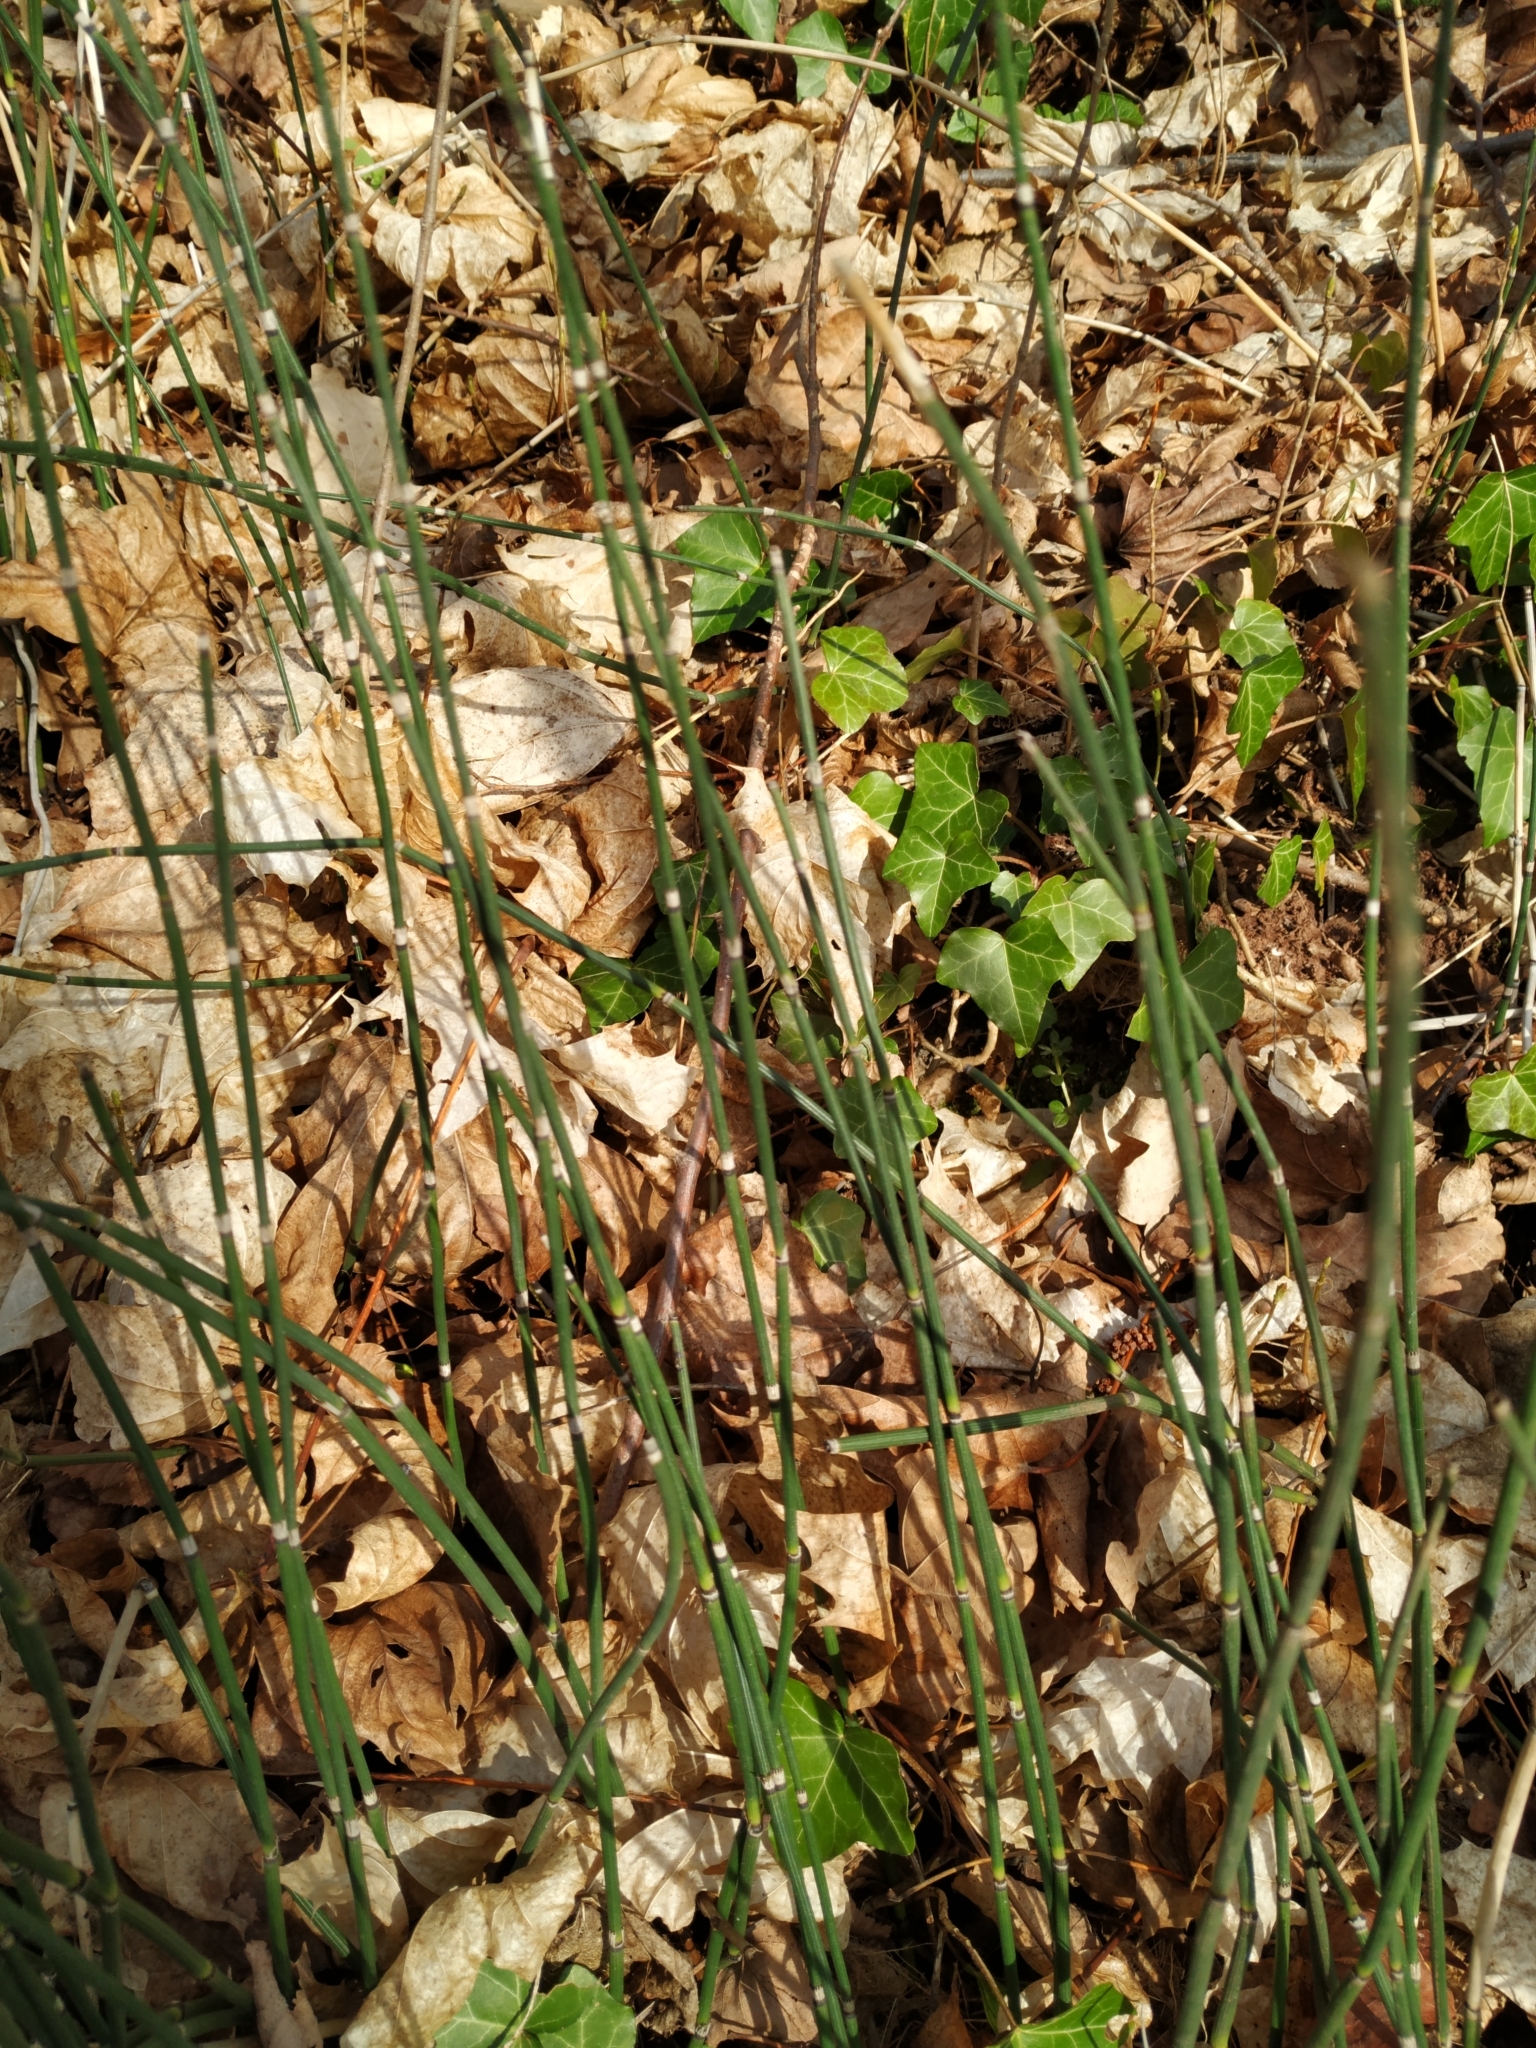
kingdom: Plantae
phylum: Tracheophyta
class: Polypodiopsida
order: Equisetales
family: Equisetaceae
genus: Equisetum
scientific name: Equisetum hyemale
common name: Rough horsetail
